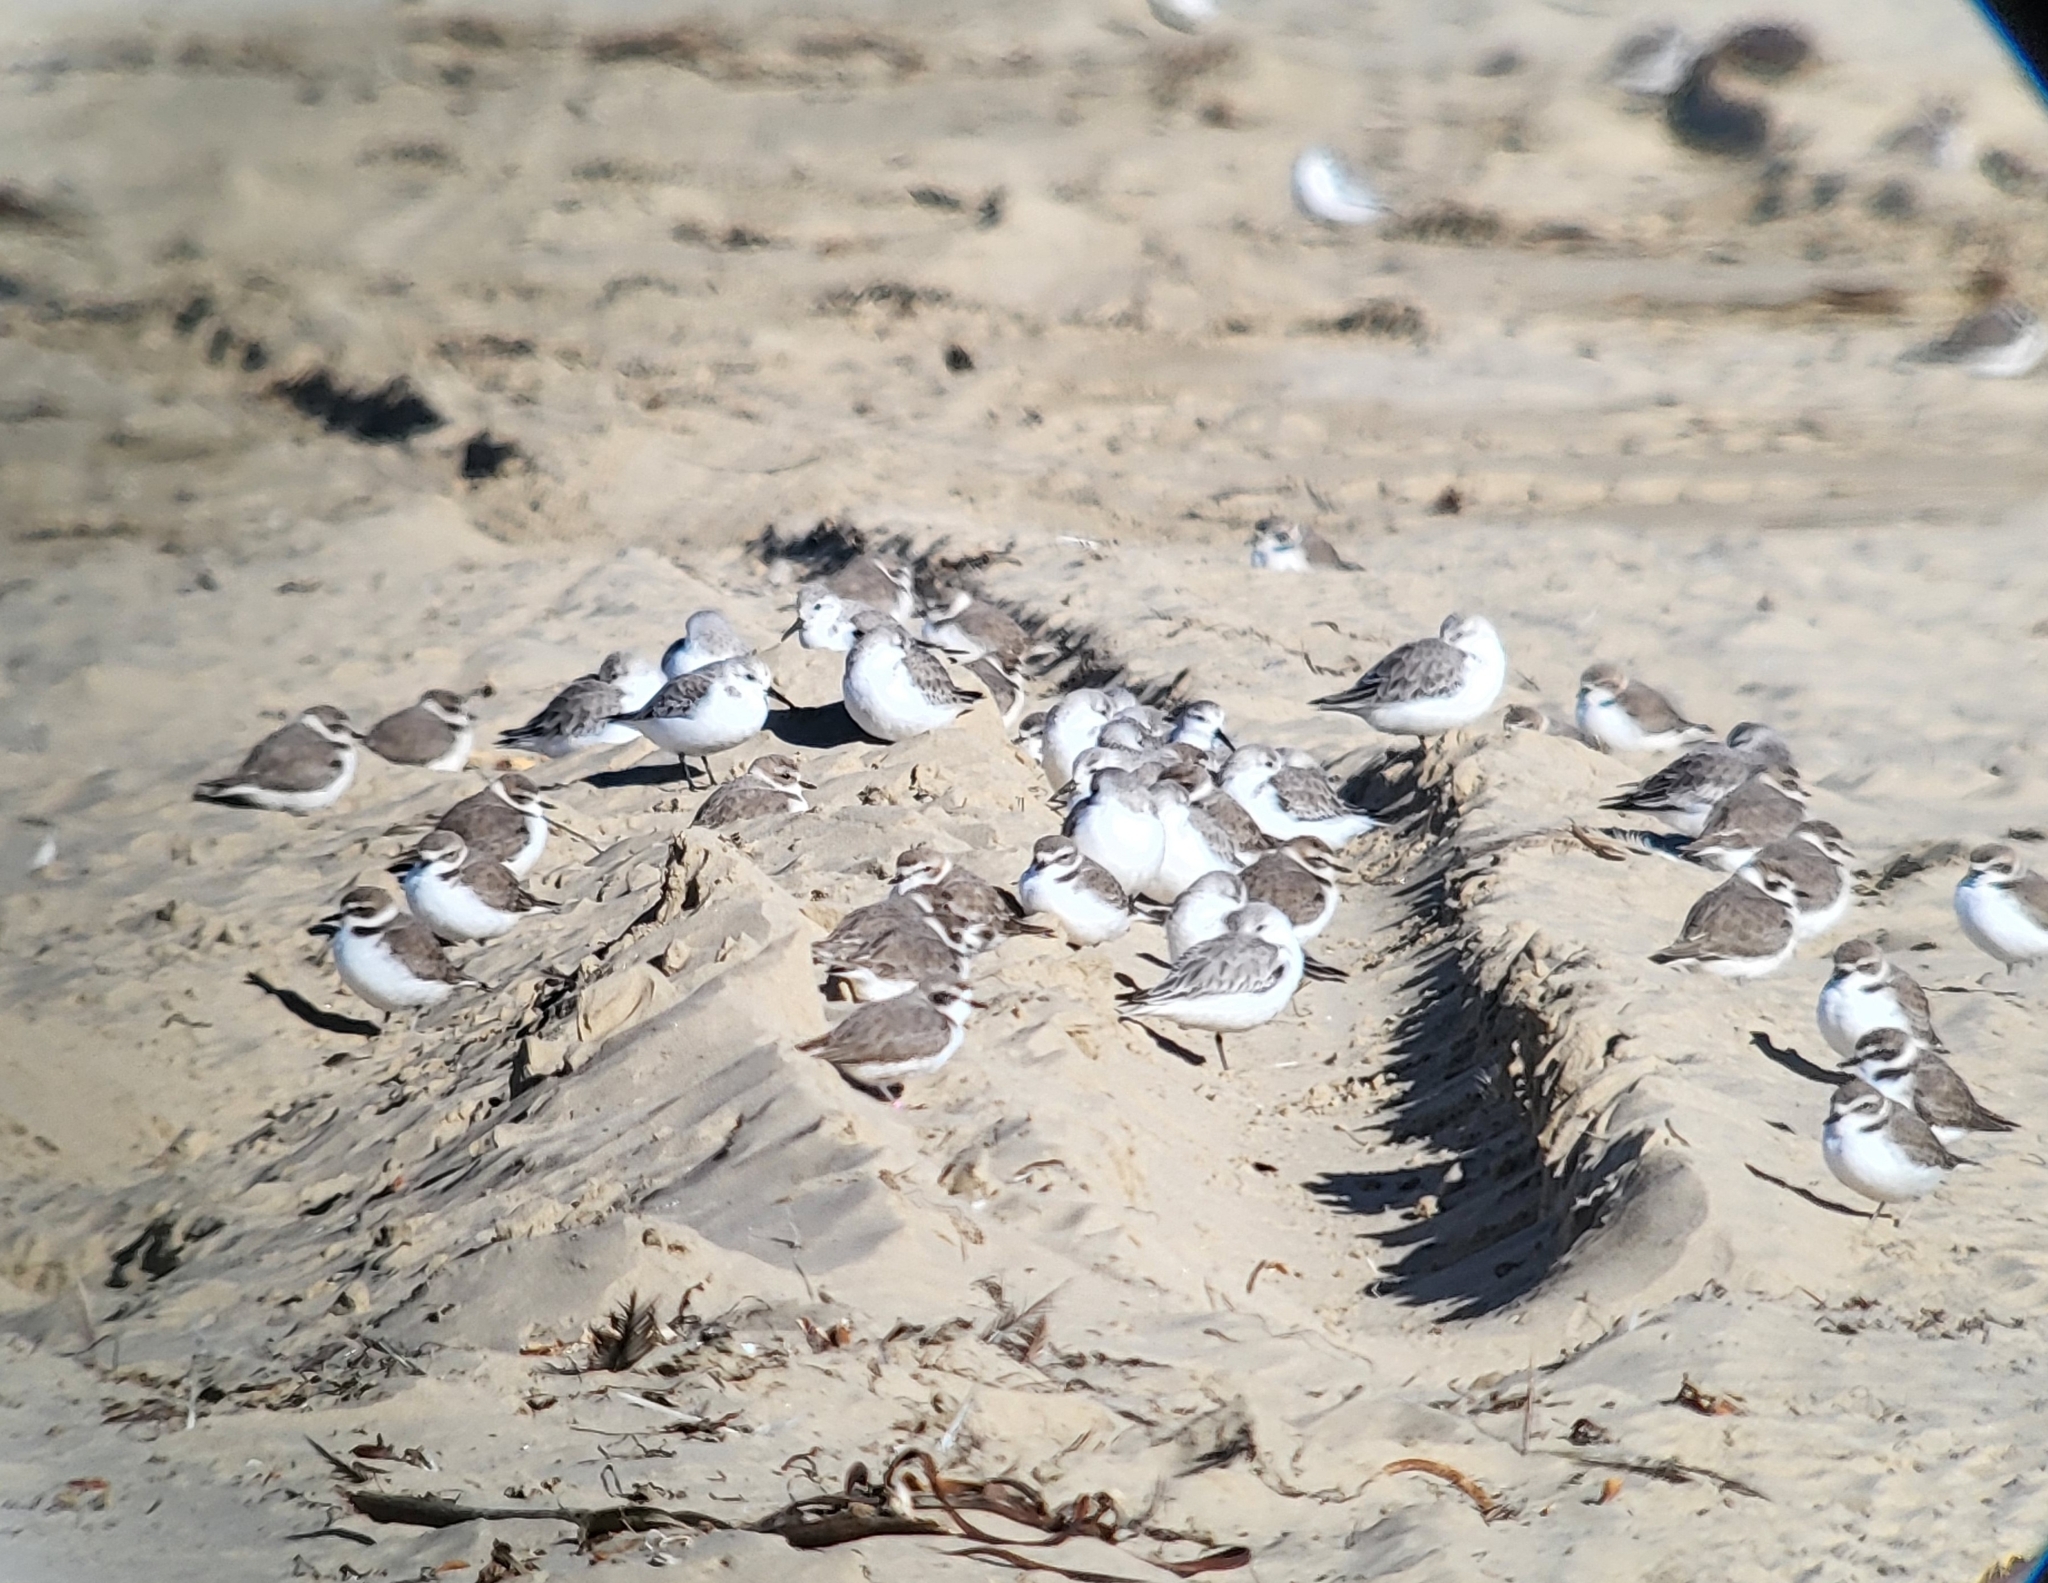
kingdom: Animalia
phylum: Chordata
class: Aves
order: Charadriiformes
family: Scolopacidae
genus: Calidris
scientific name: Calidris alba
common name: Sanderling
